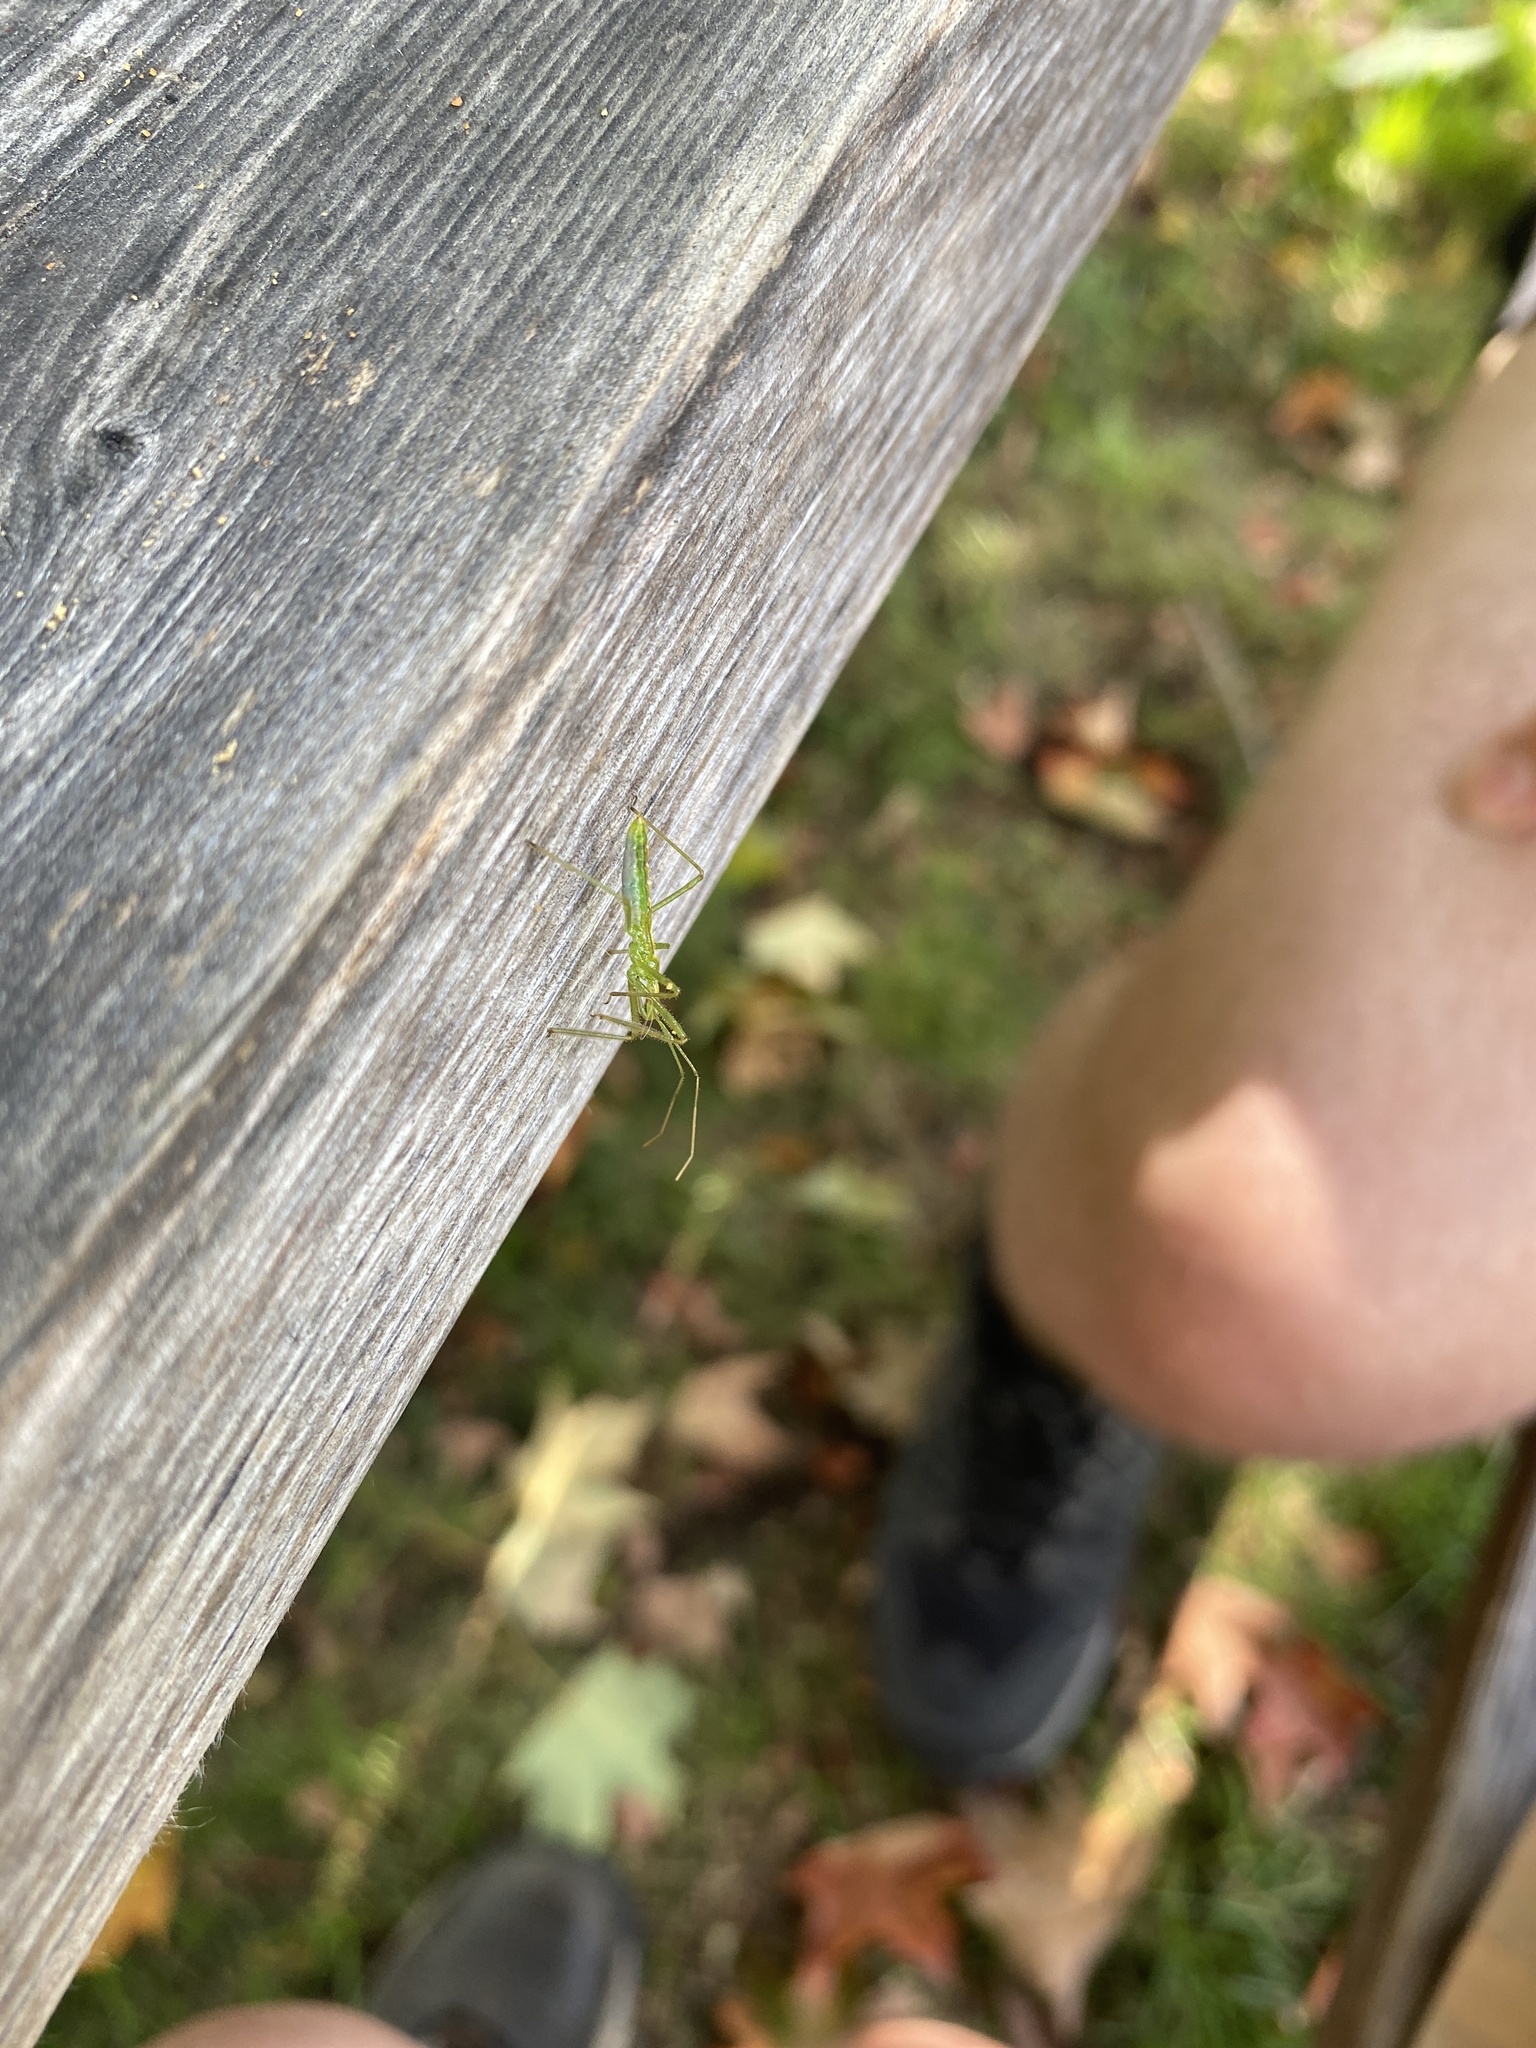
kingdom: Animalia
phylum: Arthropoda
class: Insecta
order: Hemiptera
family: Reduviidae
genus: Zelus
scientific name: Zelus luridus
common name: Pale green assassin bug
